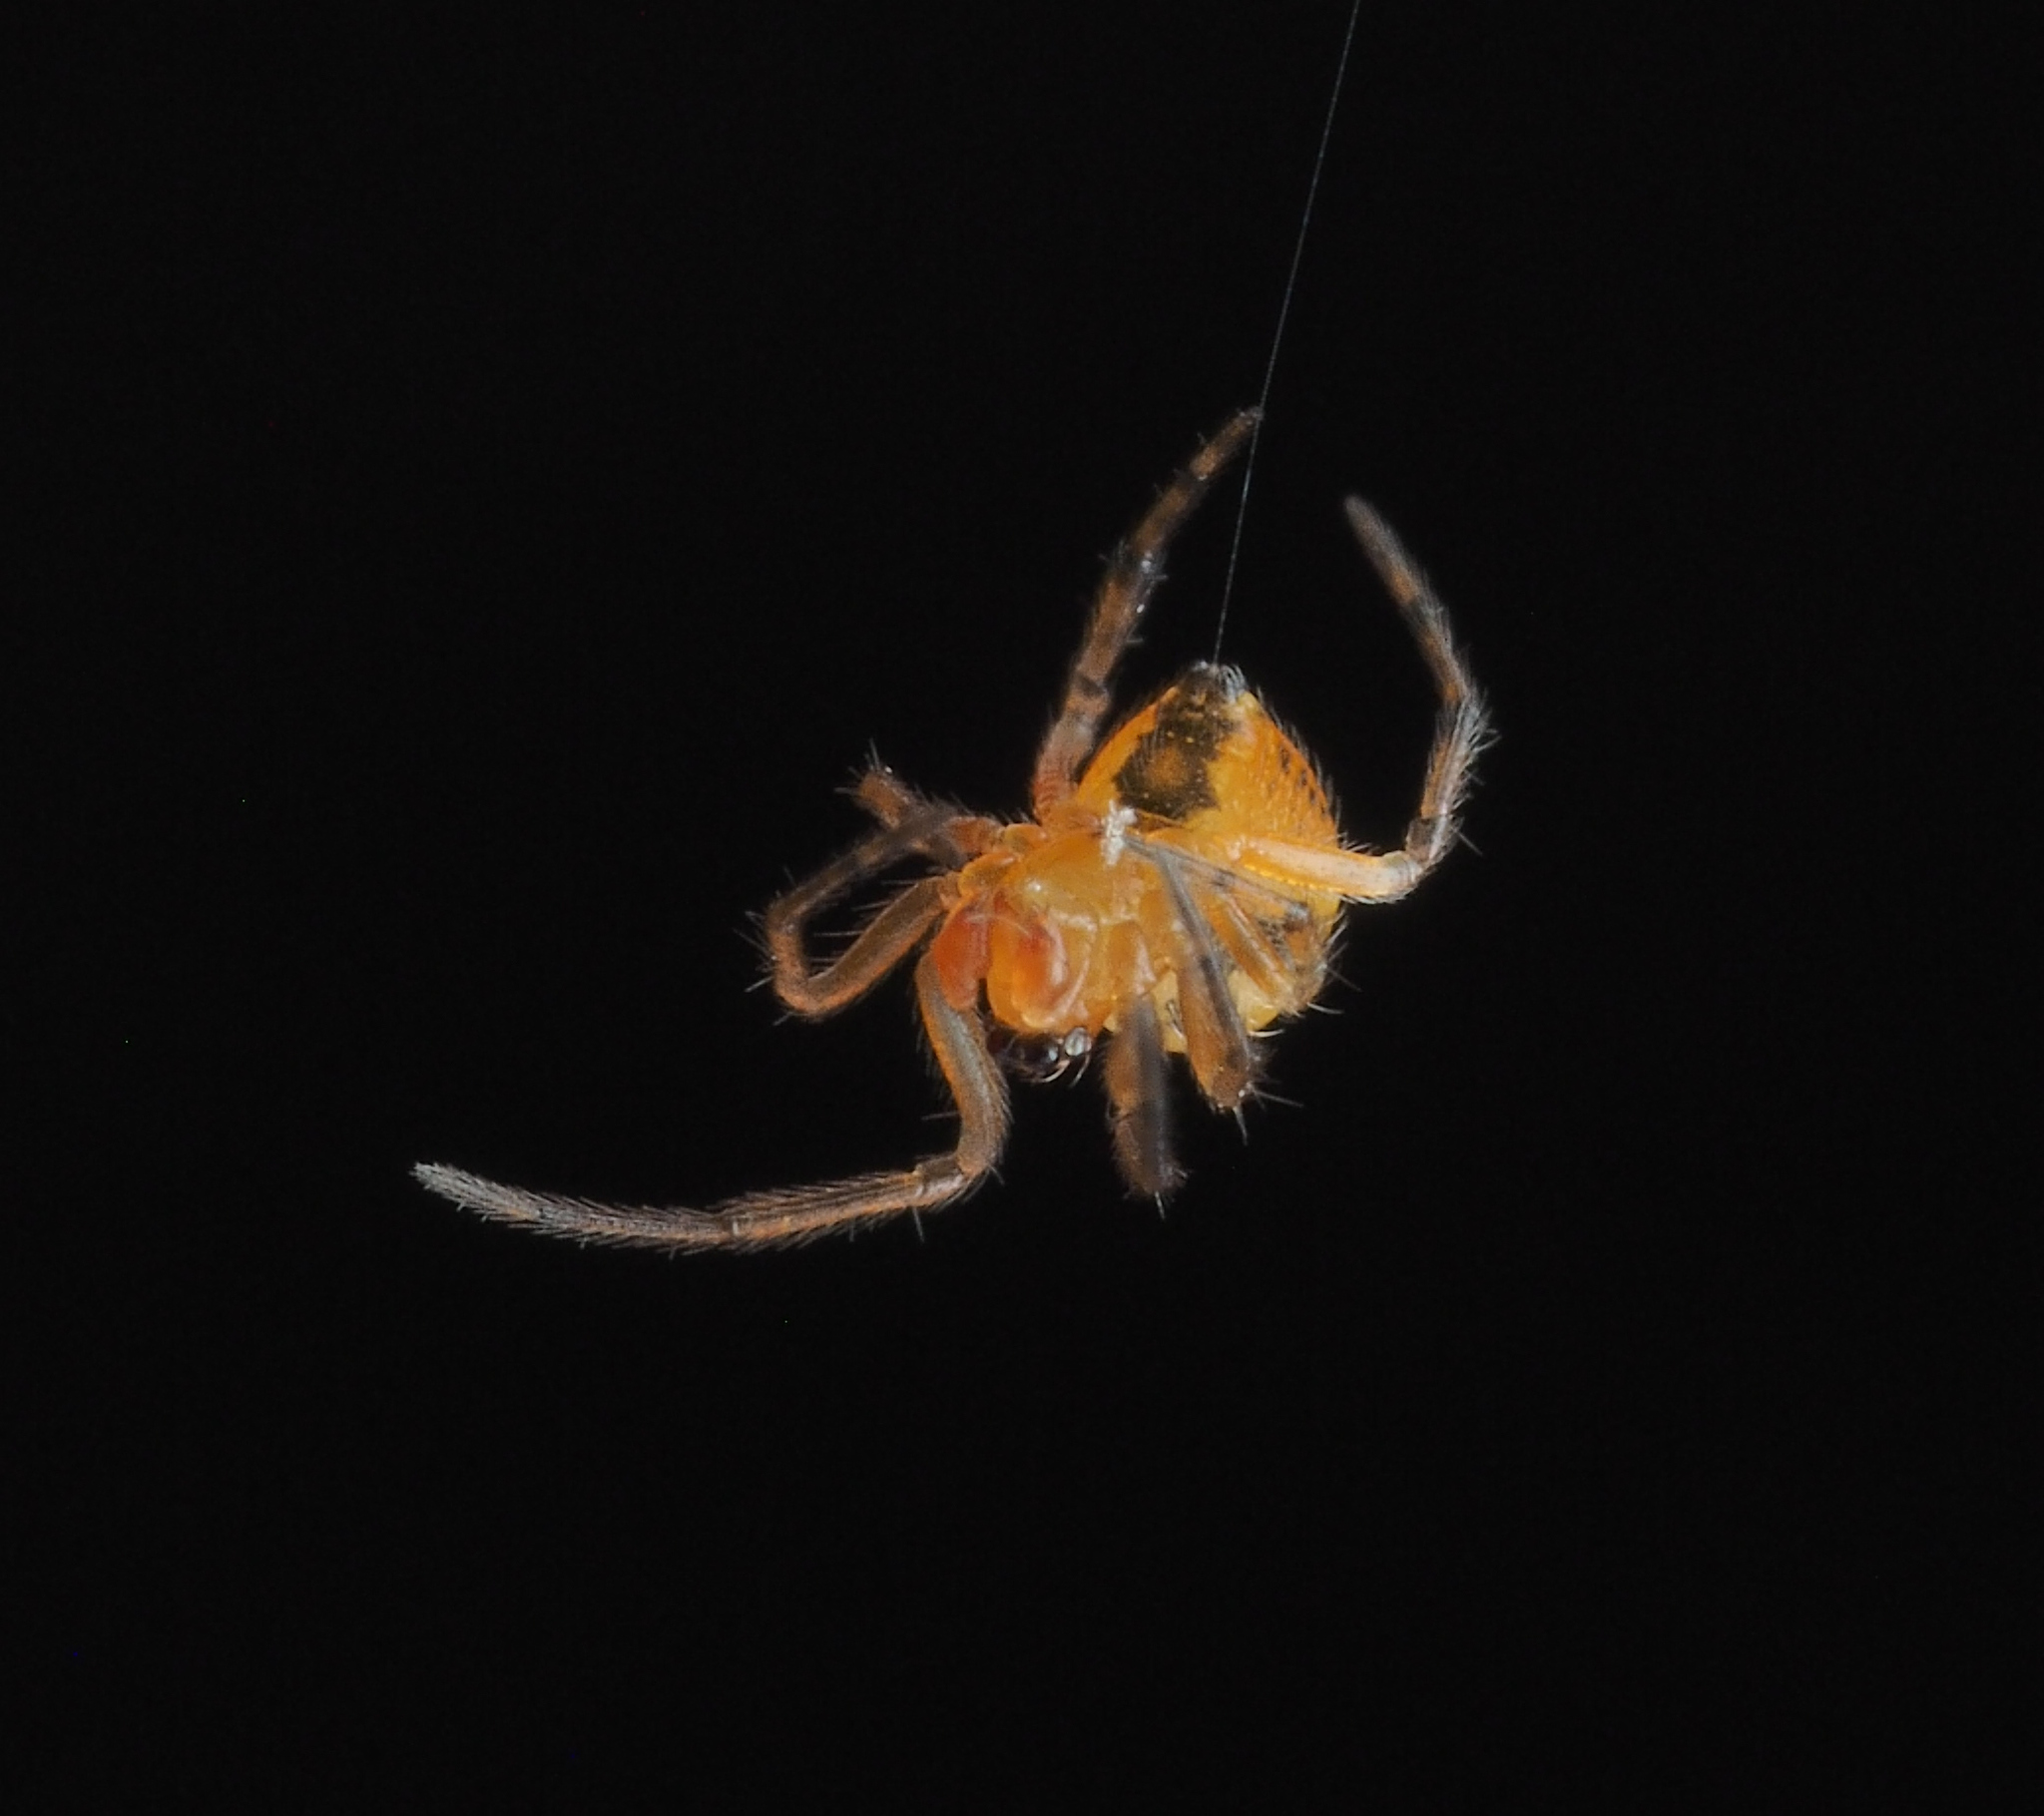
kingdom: Animalia
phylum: Arthropoda
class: Arachnida
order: Araneae
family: Theridiidae
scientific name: Theridiidae
